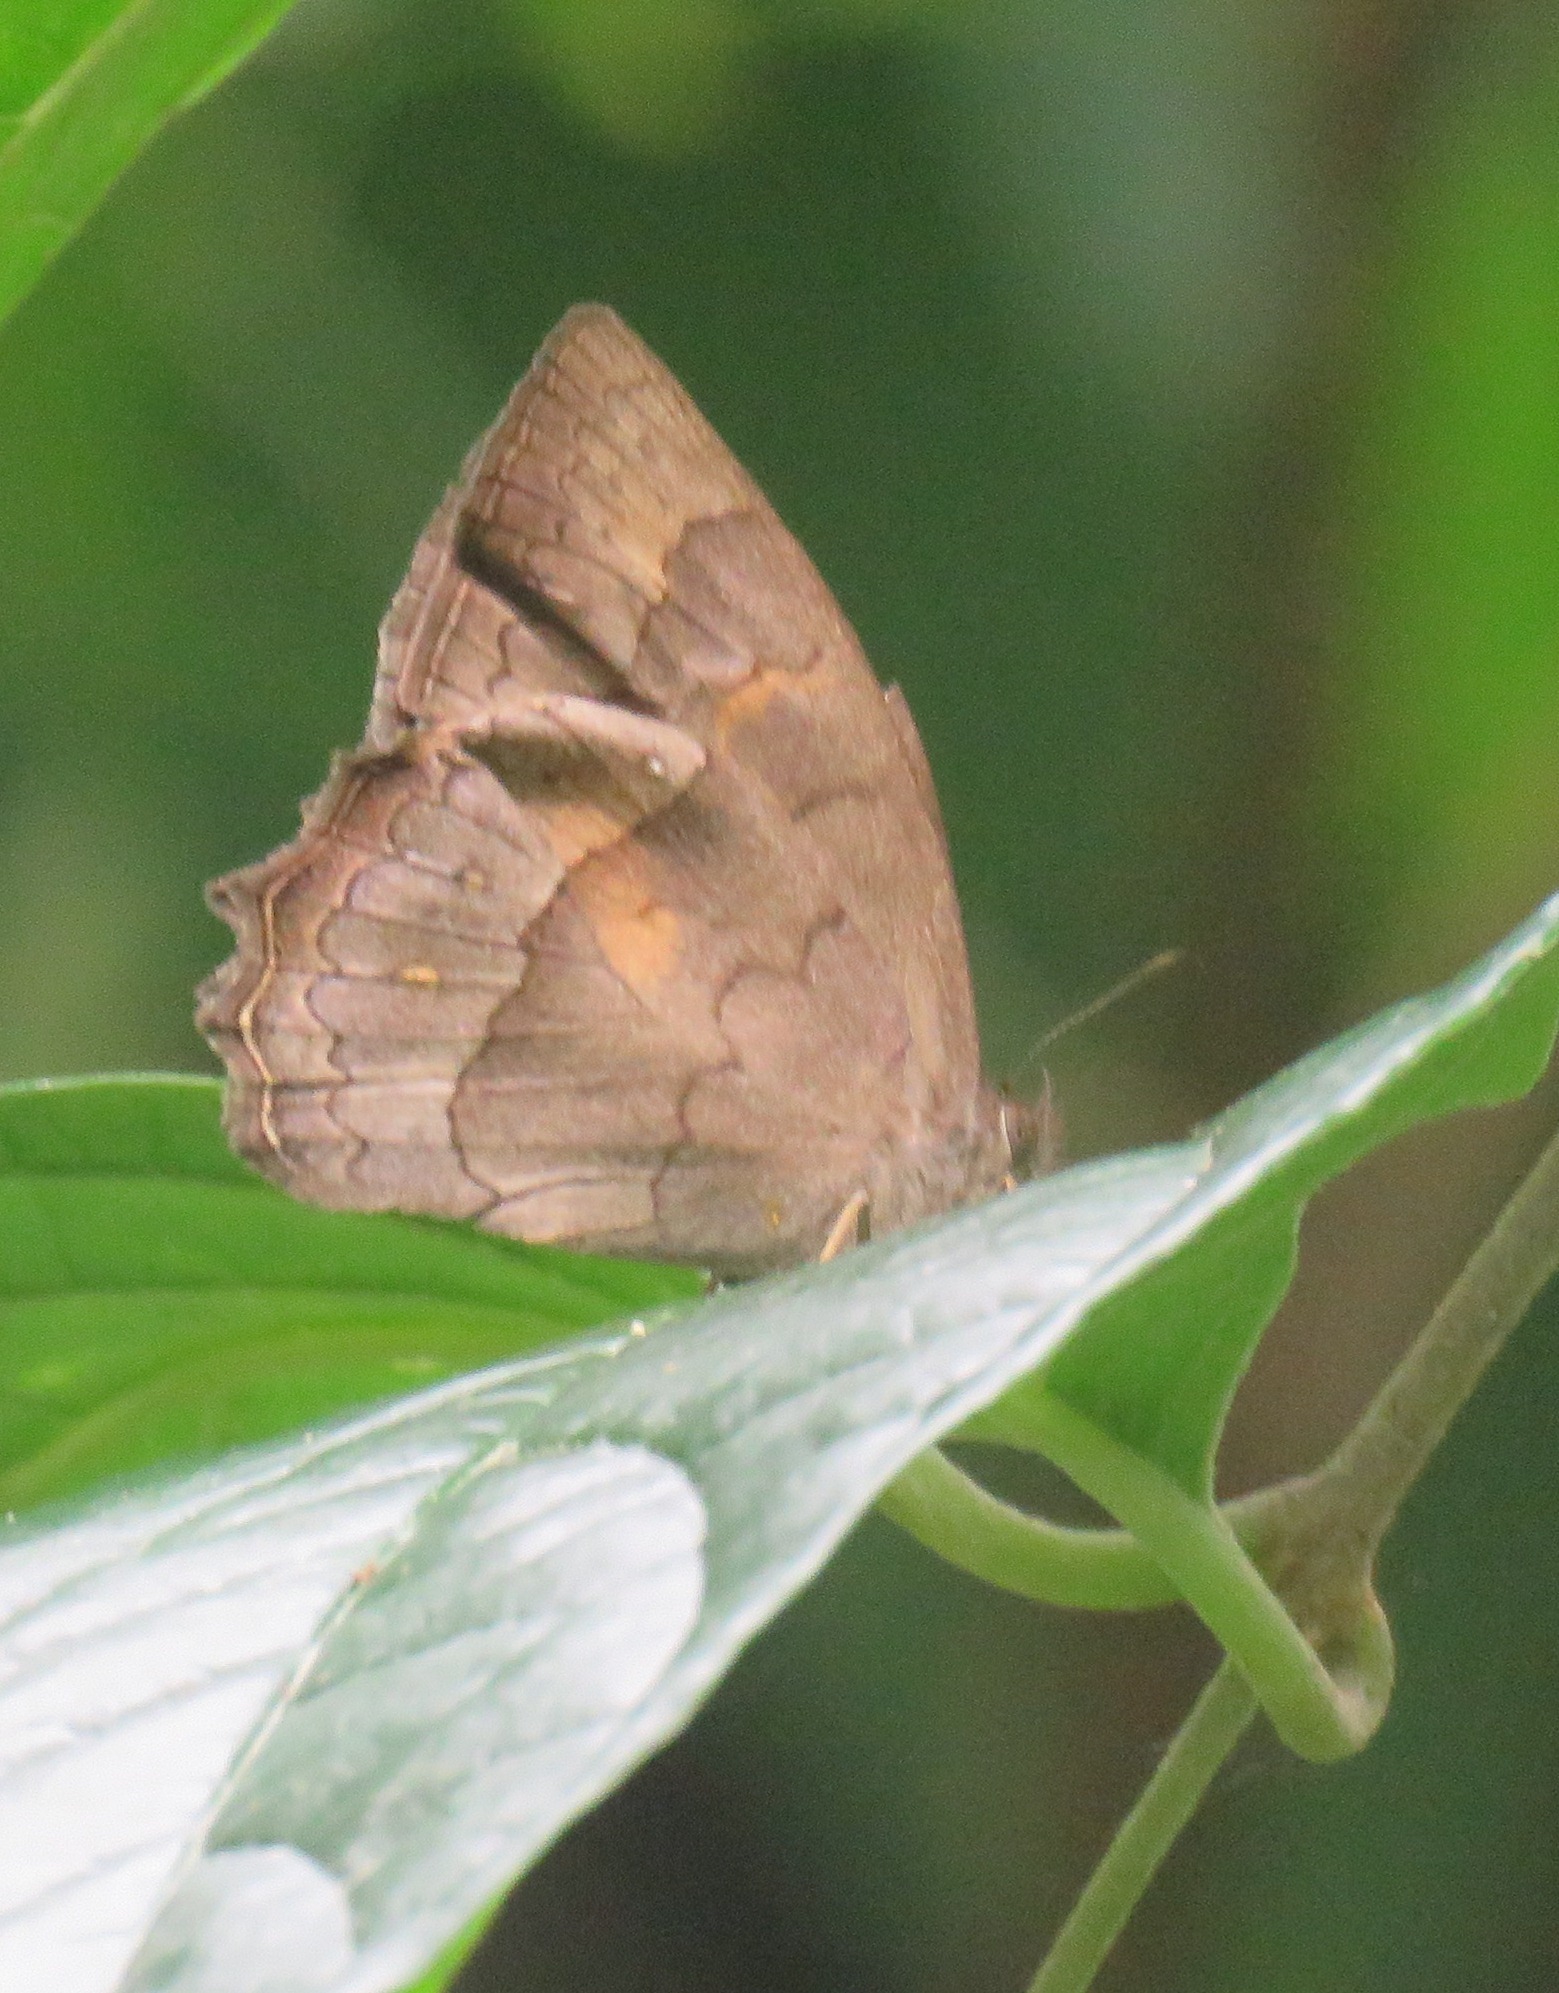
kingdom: Animalia
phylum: Arthropoda
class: Insecta
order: Lepidoptera
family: Nymphalidae
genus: Taygetina
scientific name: Taygetina kerea
